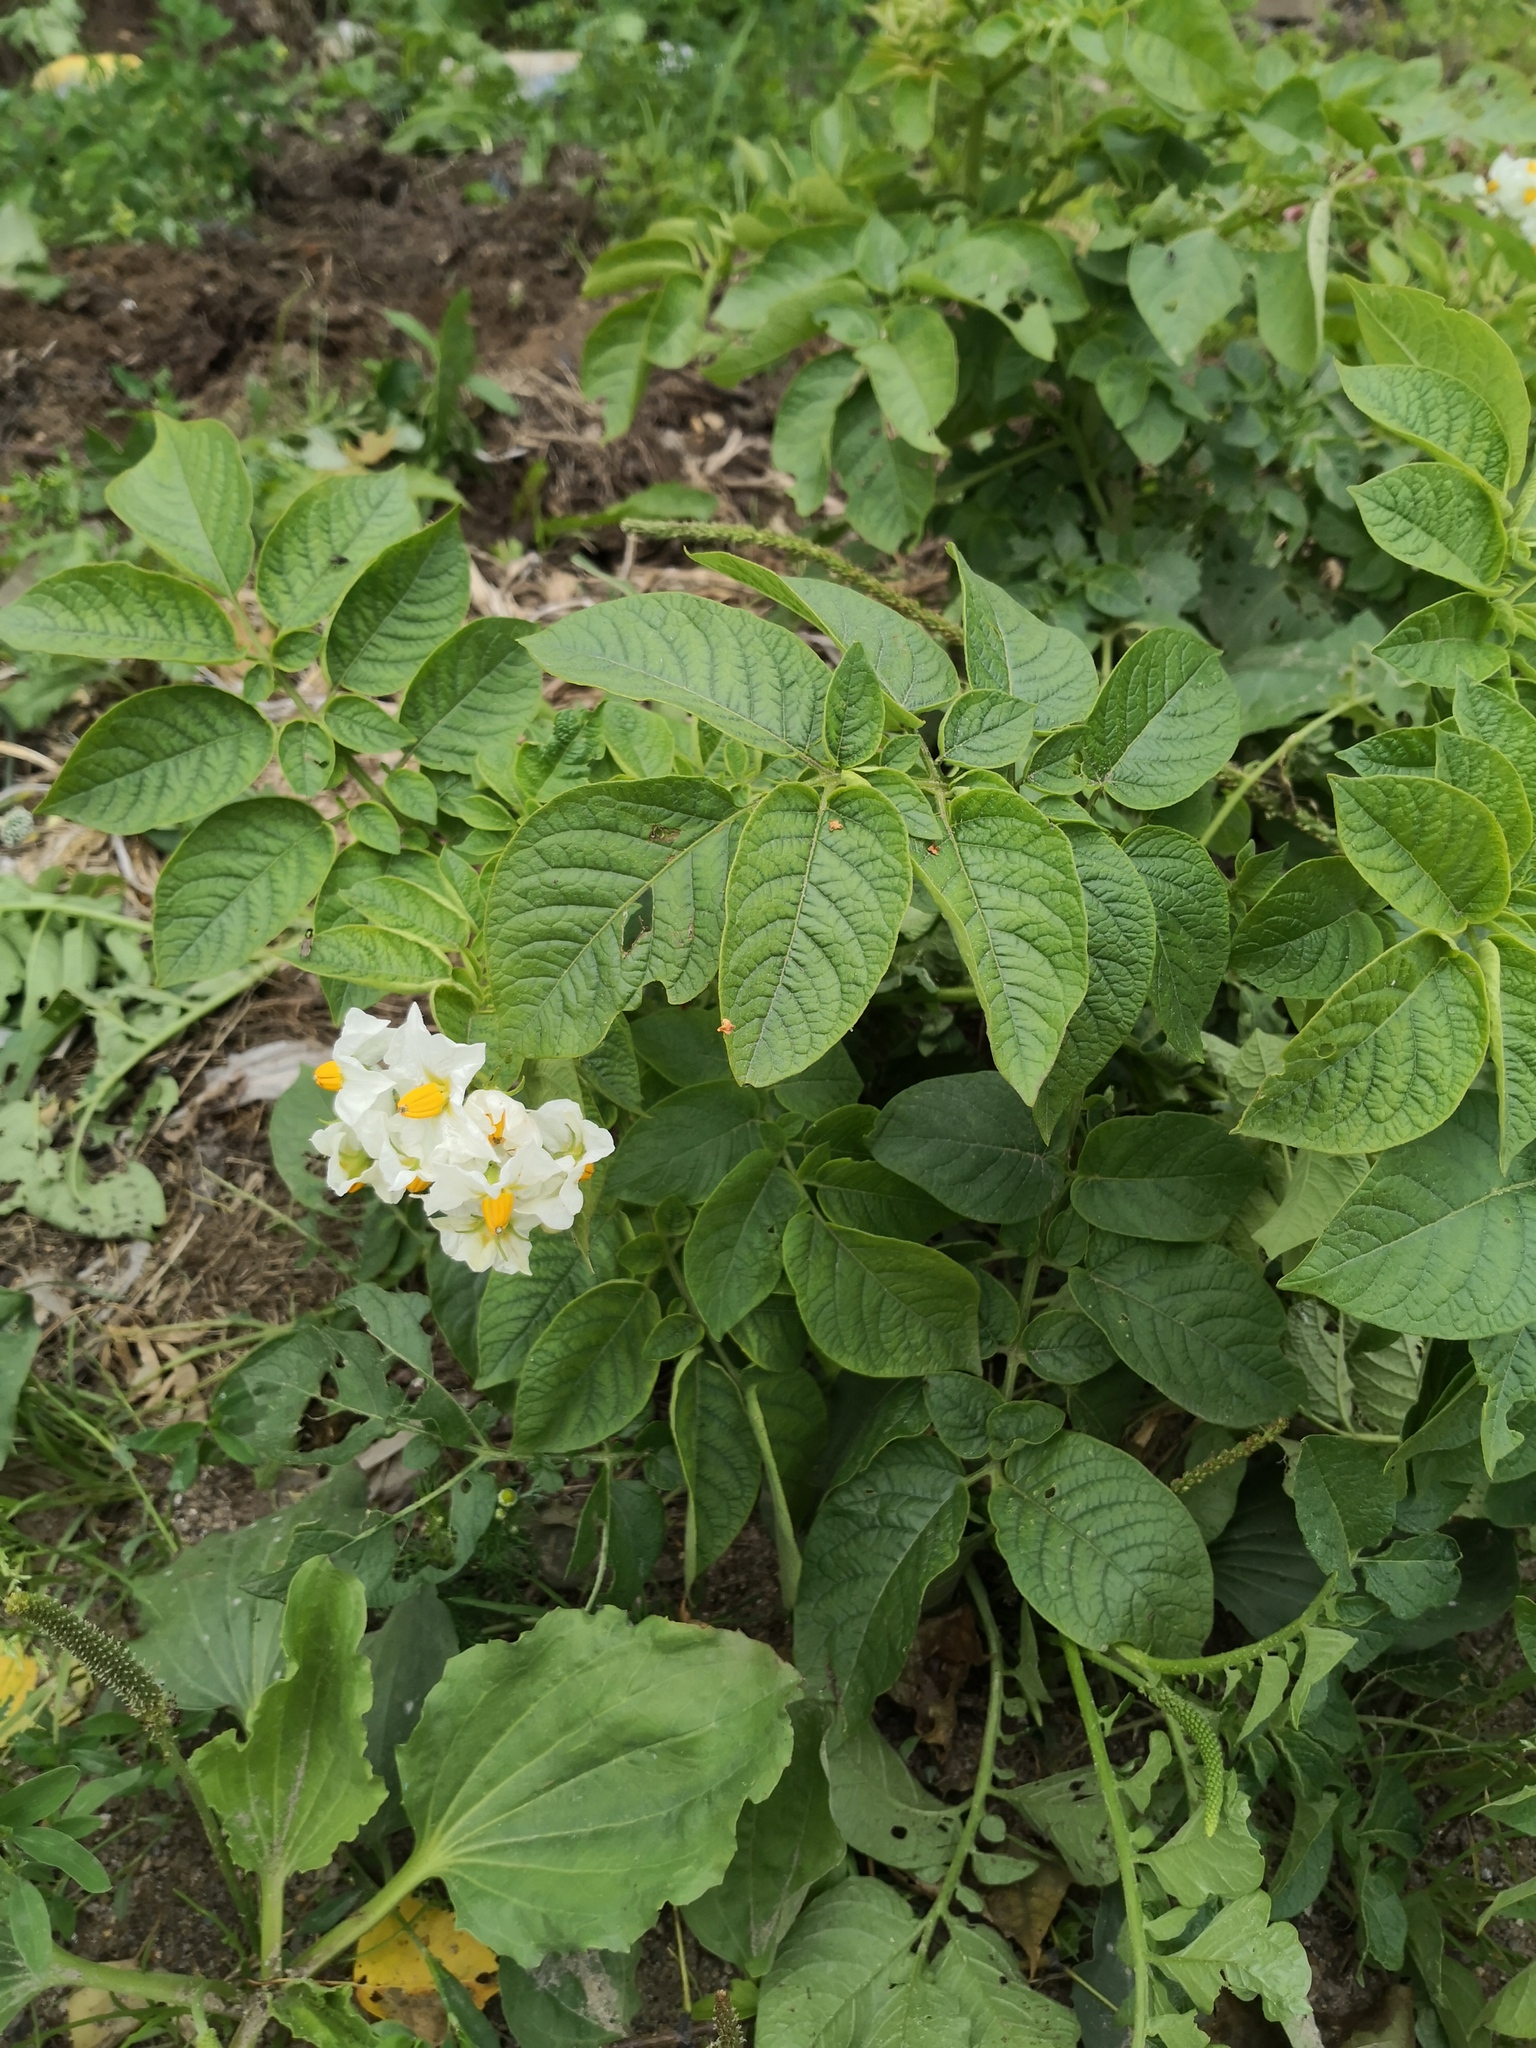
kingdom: Plantae
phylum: Tracheophyta
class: Magnoliopsida
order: Solanales
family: Solanaceae
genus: Solanum
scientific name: Solanum tuberosum
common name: Potato
